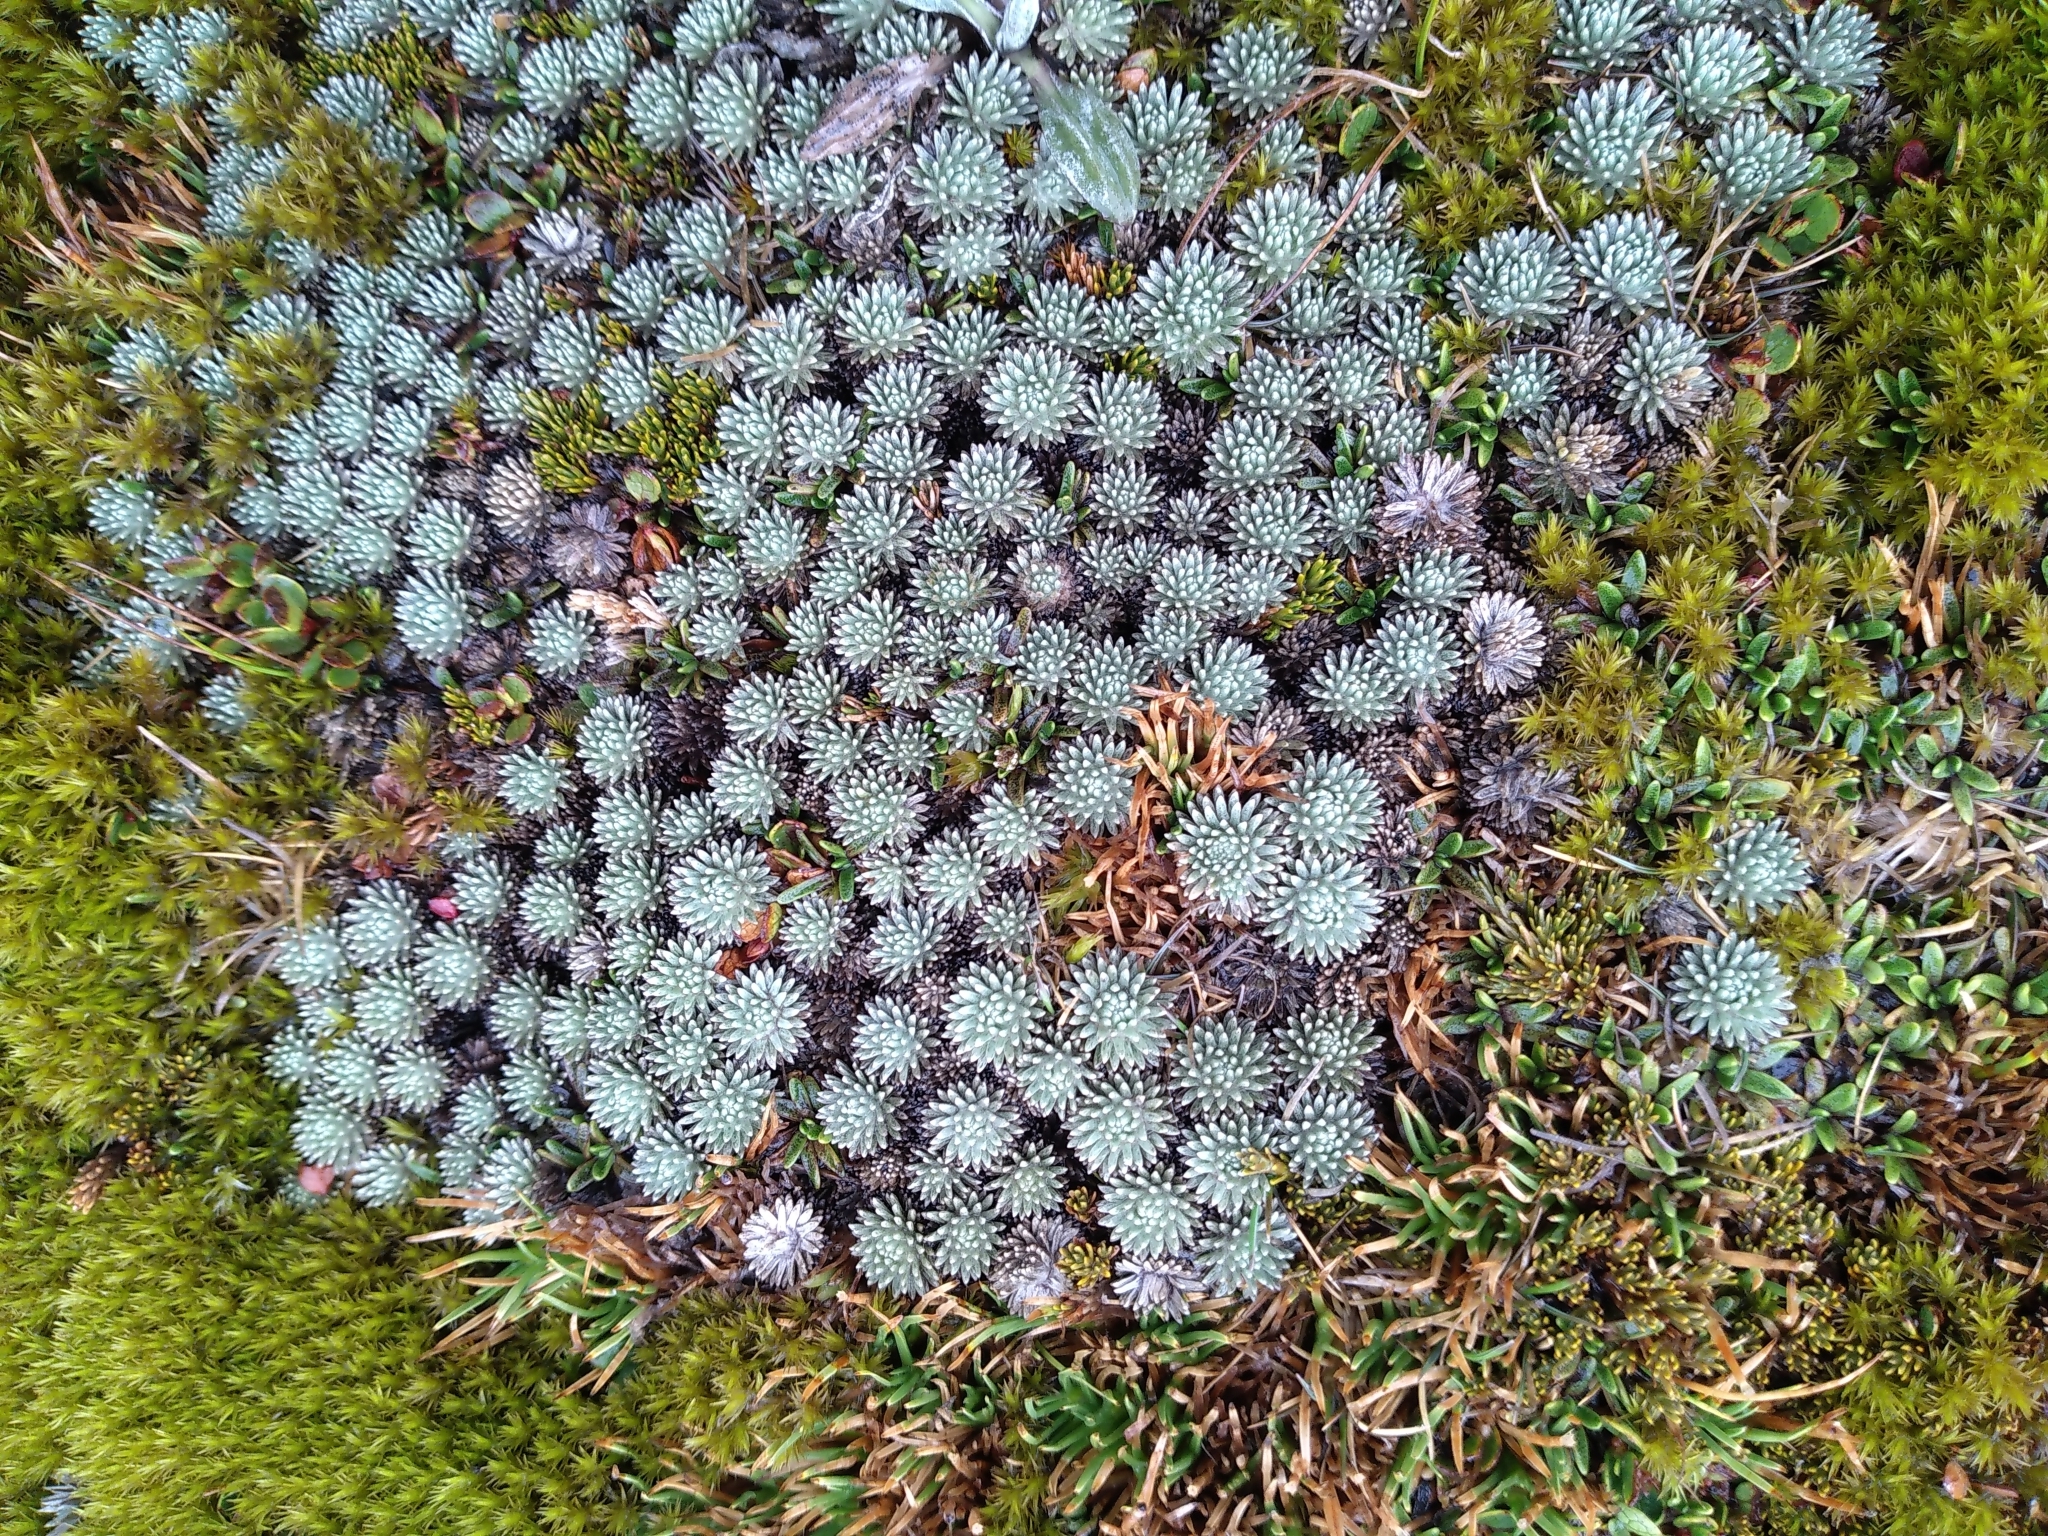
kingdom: Plantae
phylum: Tracheophyta
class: Magnoliopsida
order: Asterales
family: Asteraceae
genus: Celmisia
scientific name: Celmisia argentea
